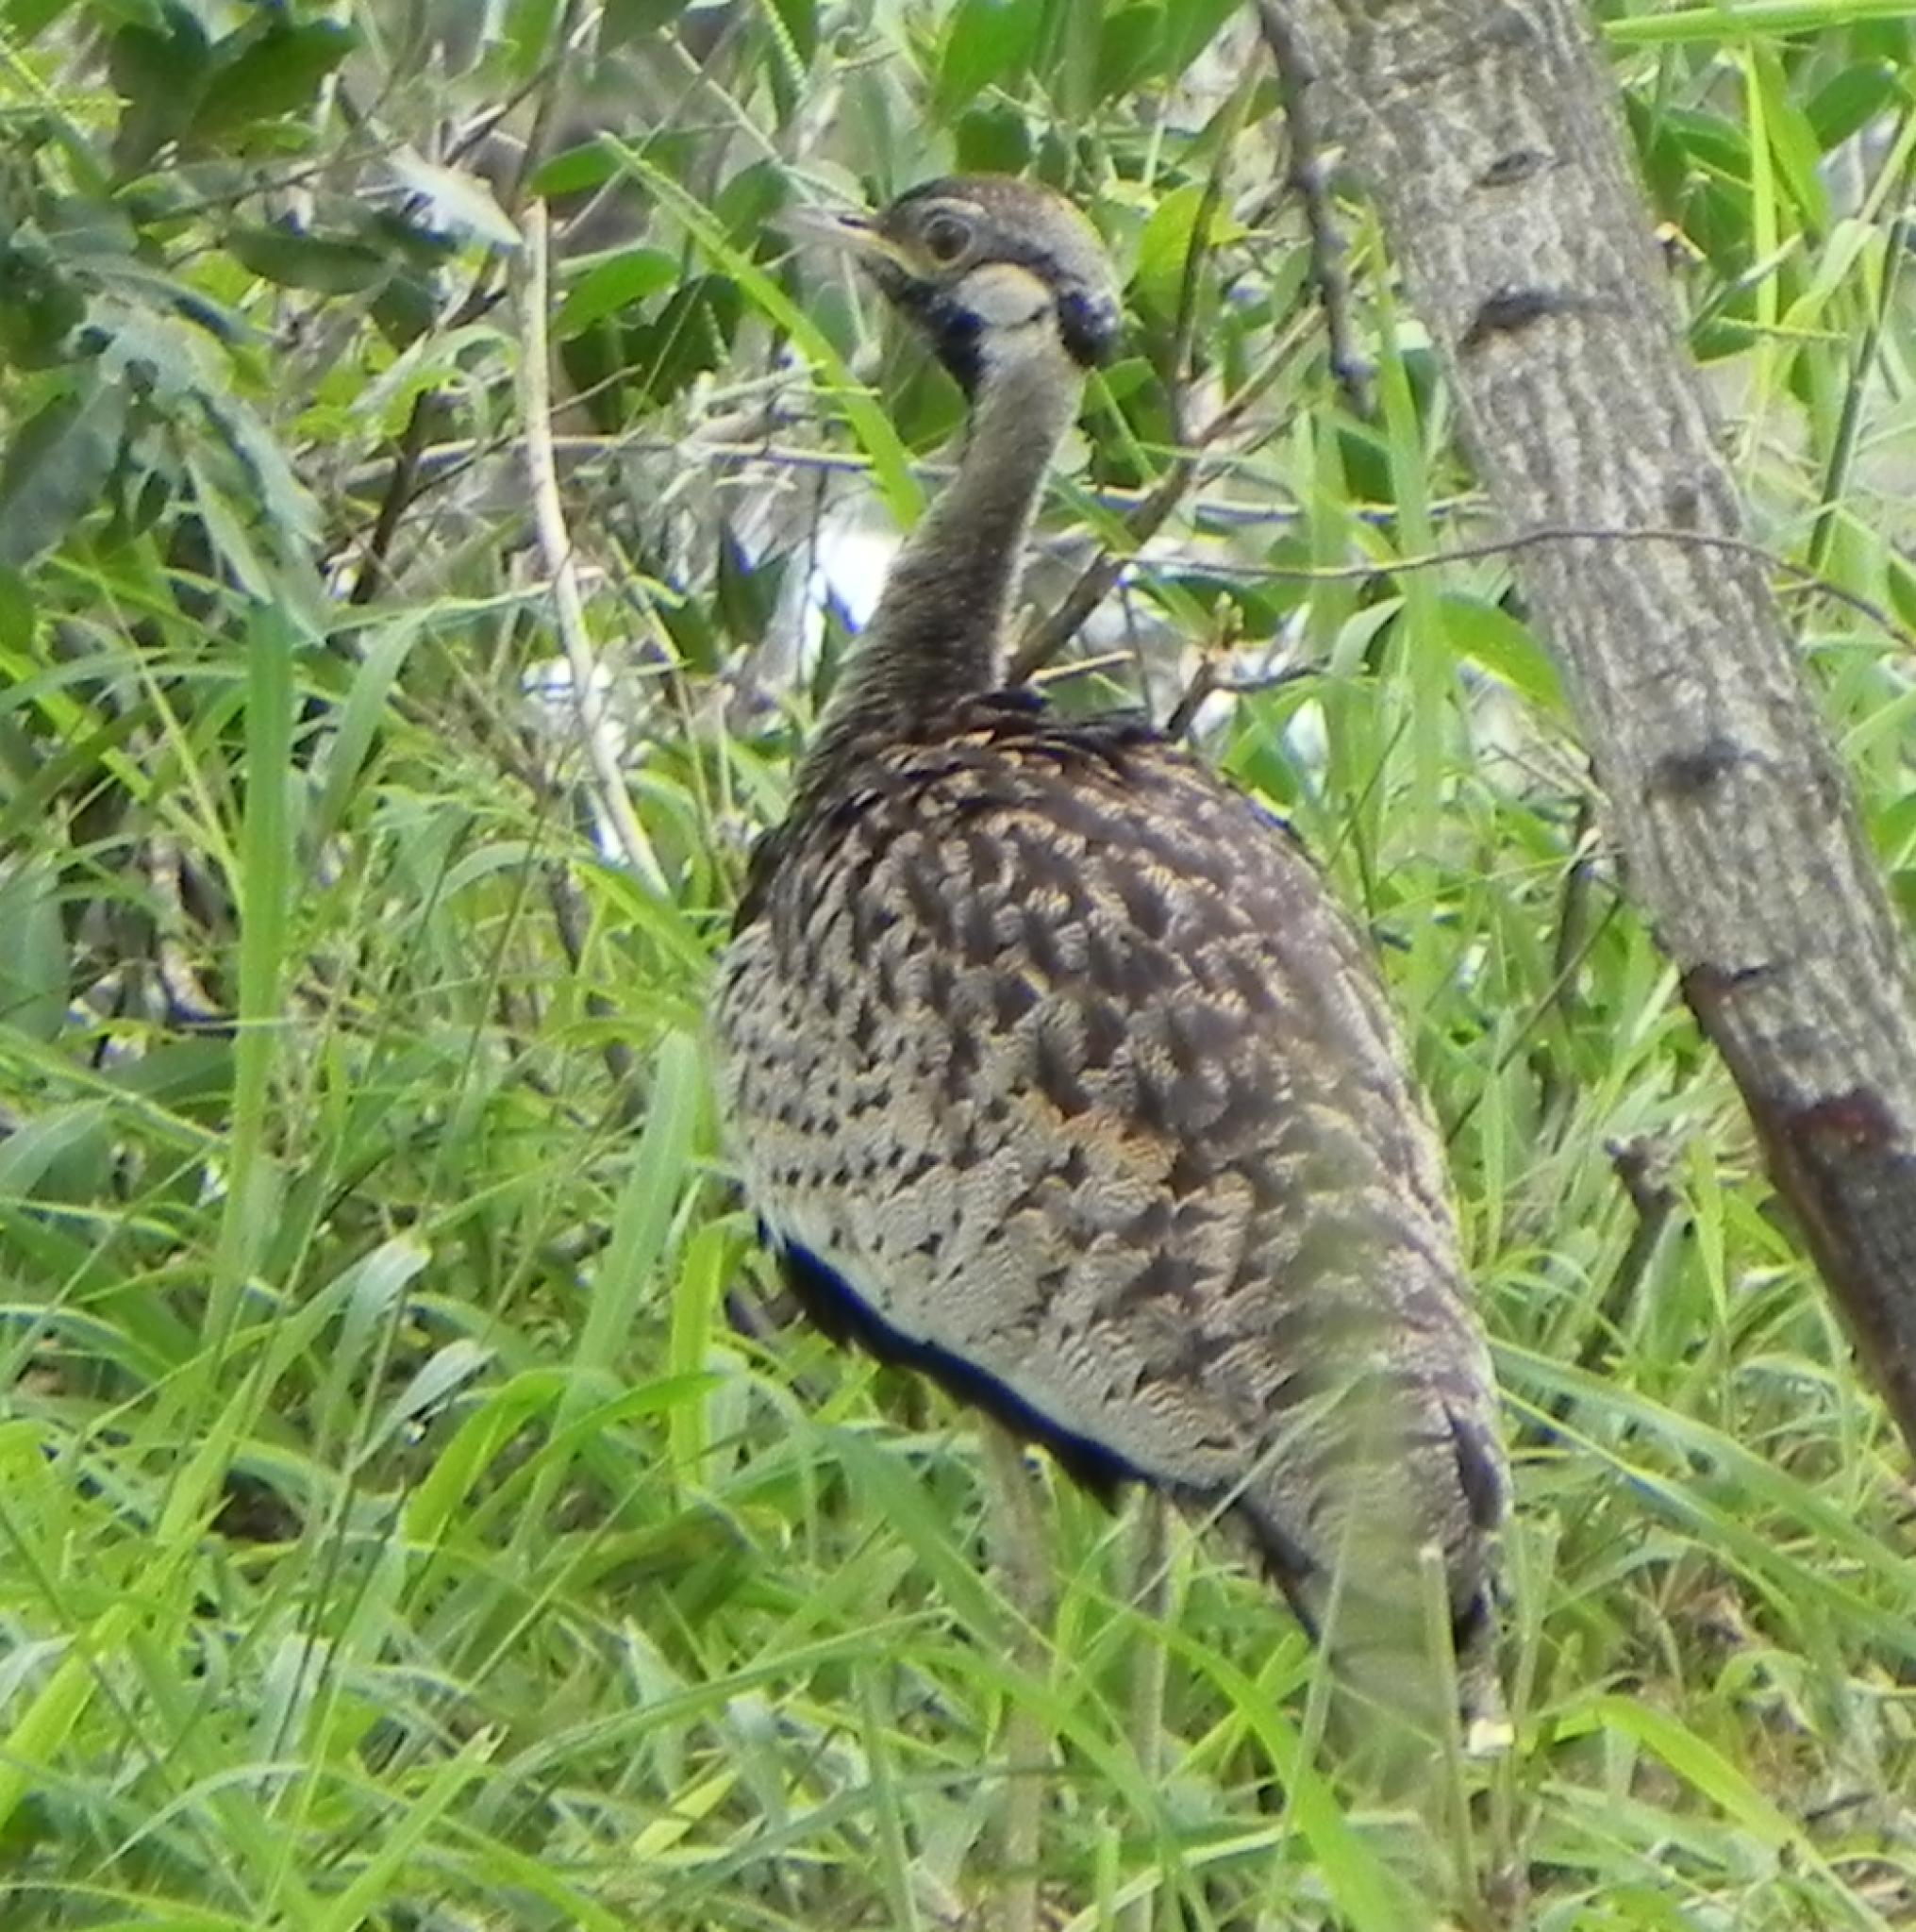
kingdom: Animalia
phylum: Chordata
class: Aves
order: Otidiformes
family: Otididae
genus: Lissotis
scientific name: Lissotis melanogaster
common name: Black-bellied bustard
